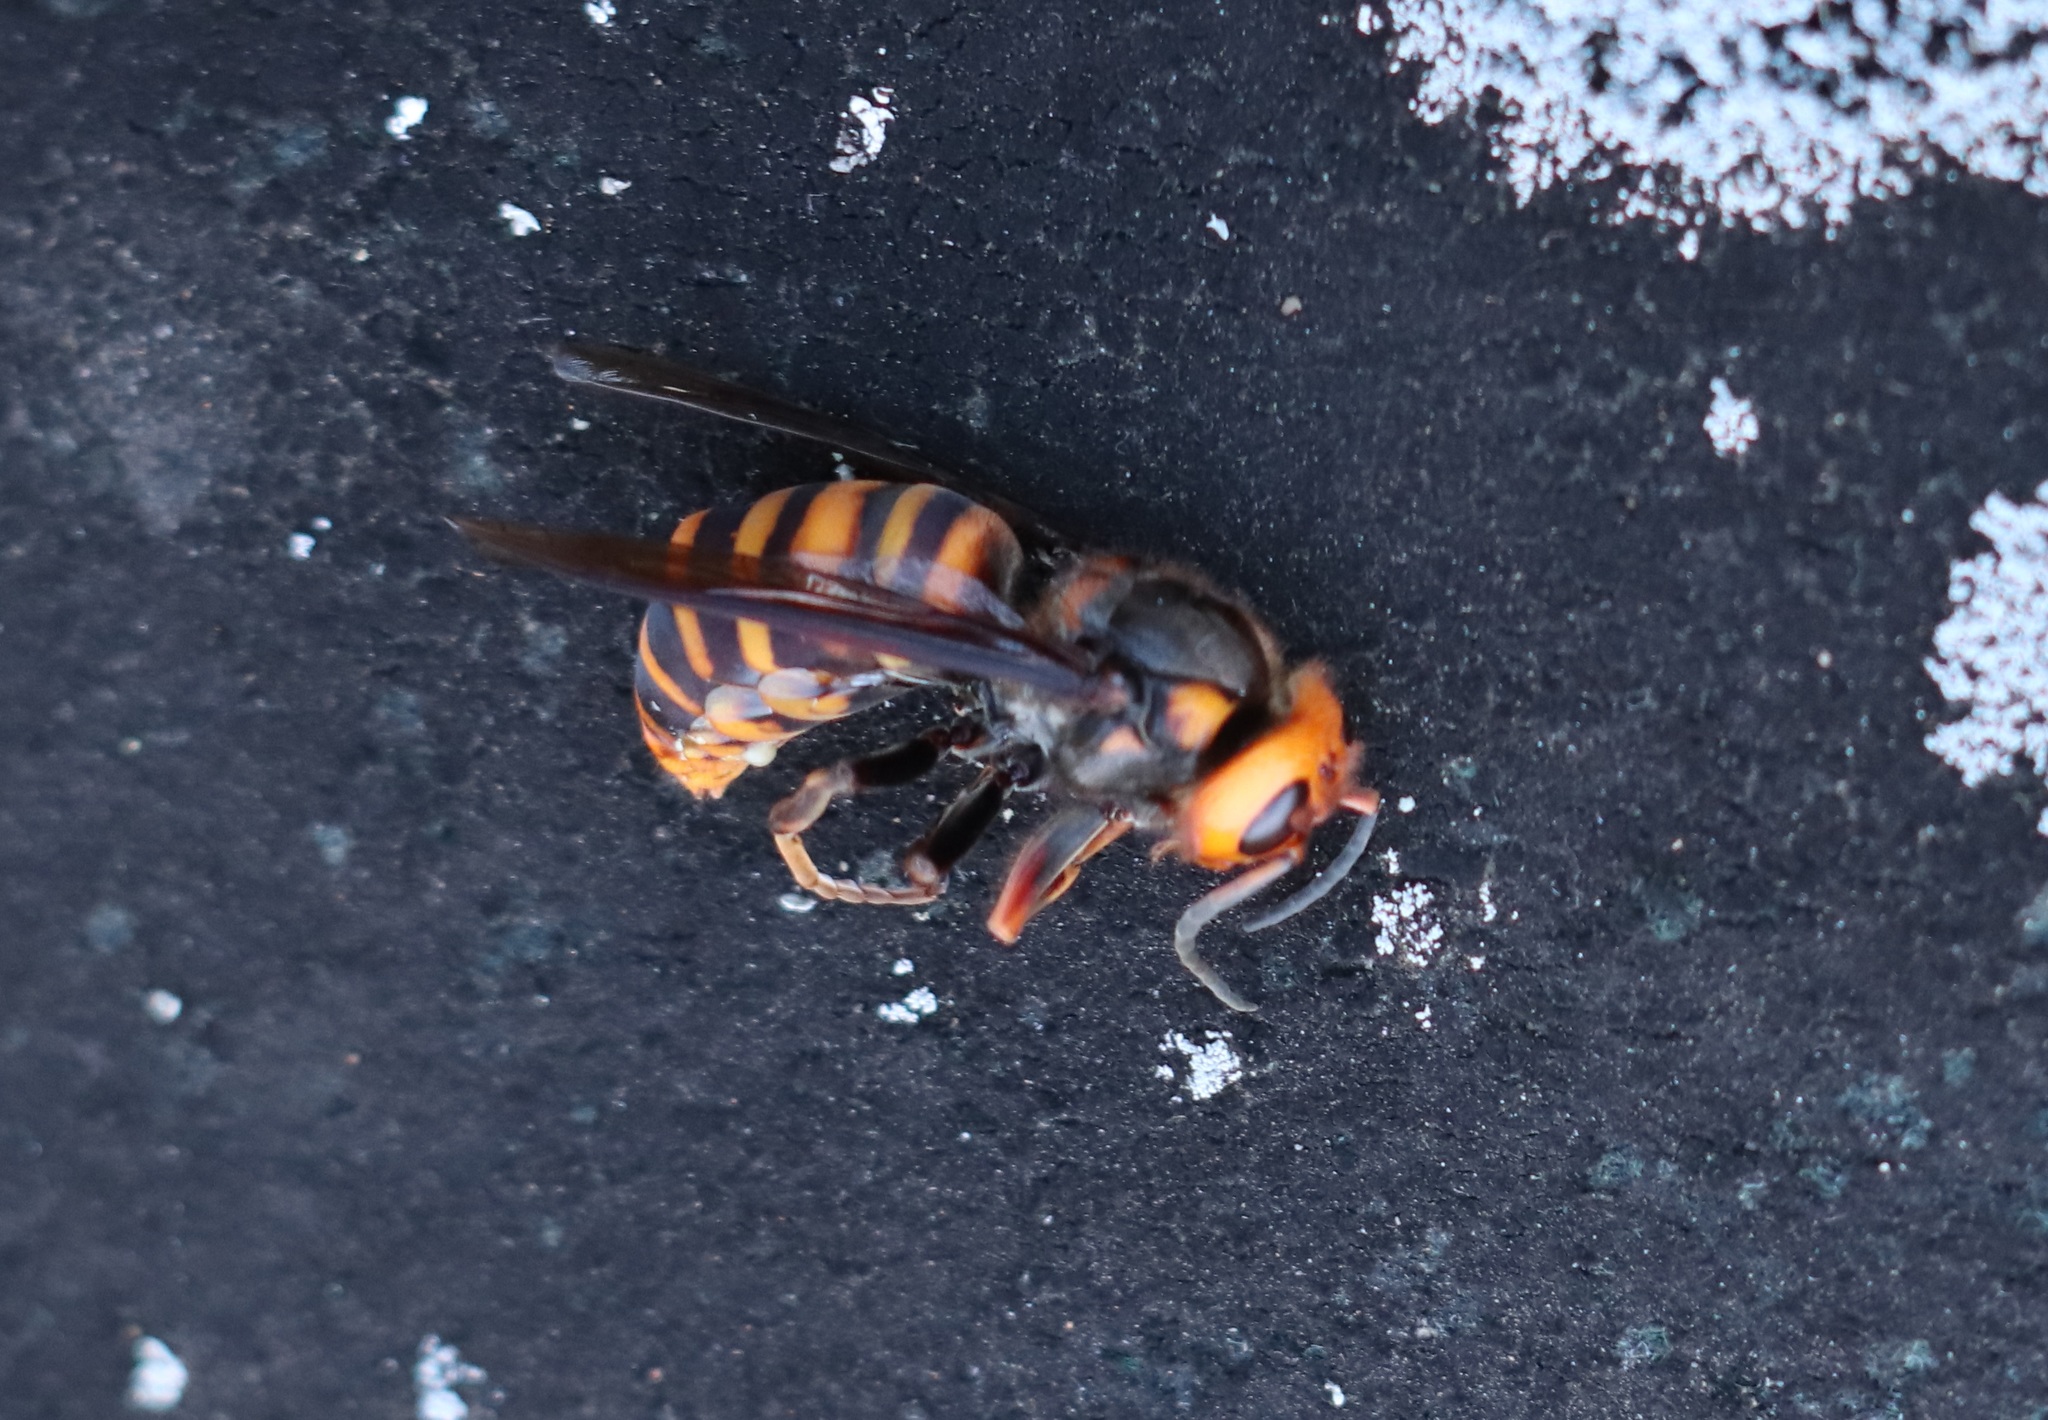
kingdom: Animalia
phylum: Arthropoda
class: Insecta
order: Hymenoptera
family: Vespidae
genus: Vespa
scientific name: Vespa mandarinia
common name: Asian giant hornet
